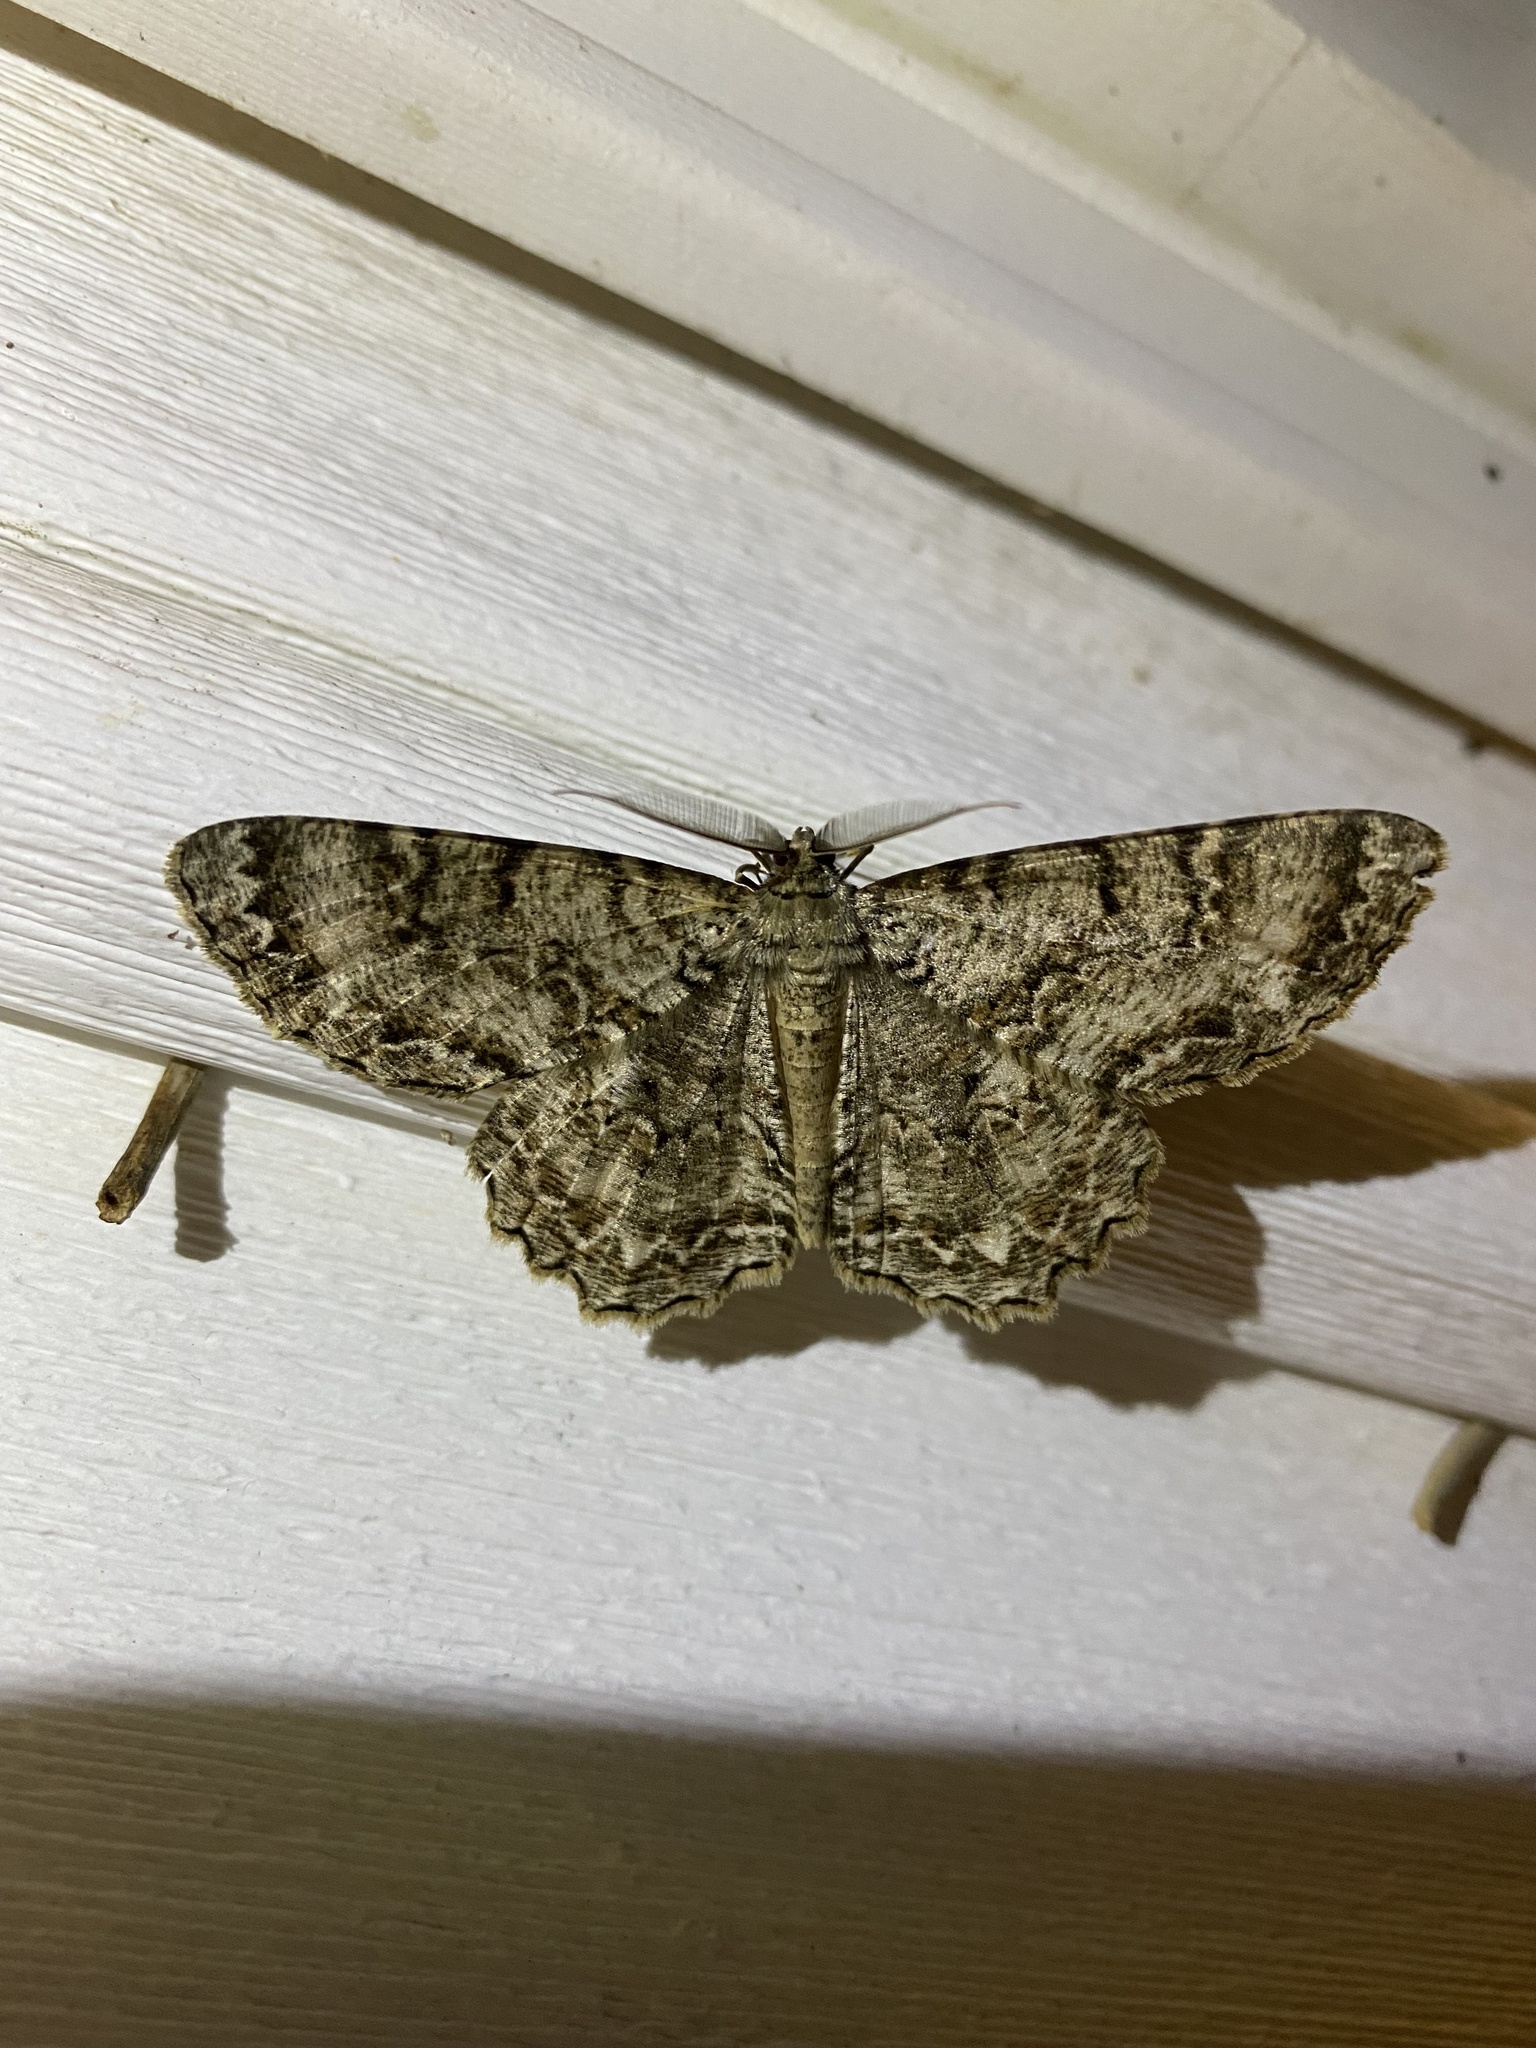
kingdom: Animalia
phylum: Arthropoda
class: Insecta
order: Lepidoptera
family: Geometridae
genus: Epimecis
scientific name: Epimecis hortaria
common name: Tulip-tree beauty
